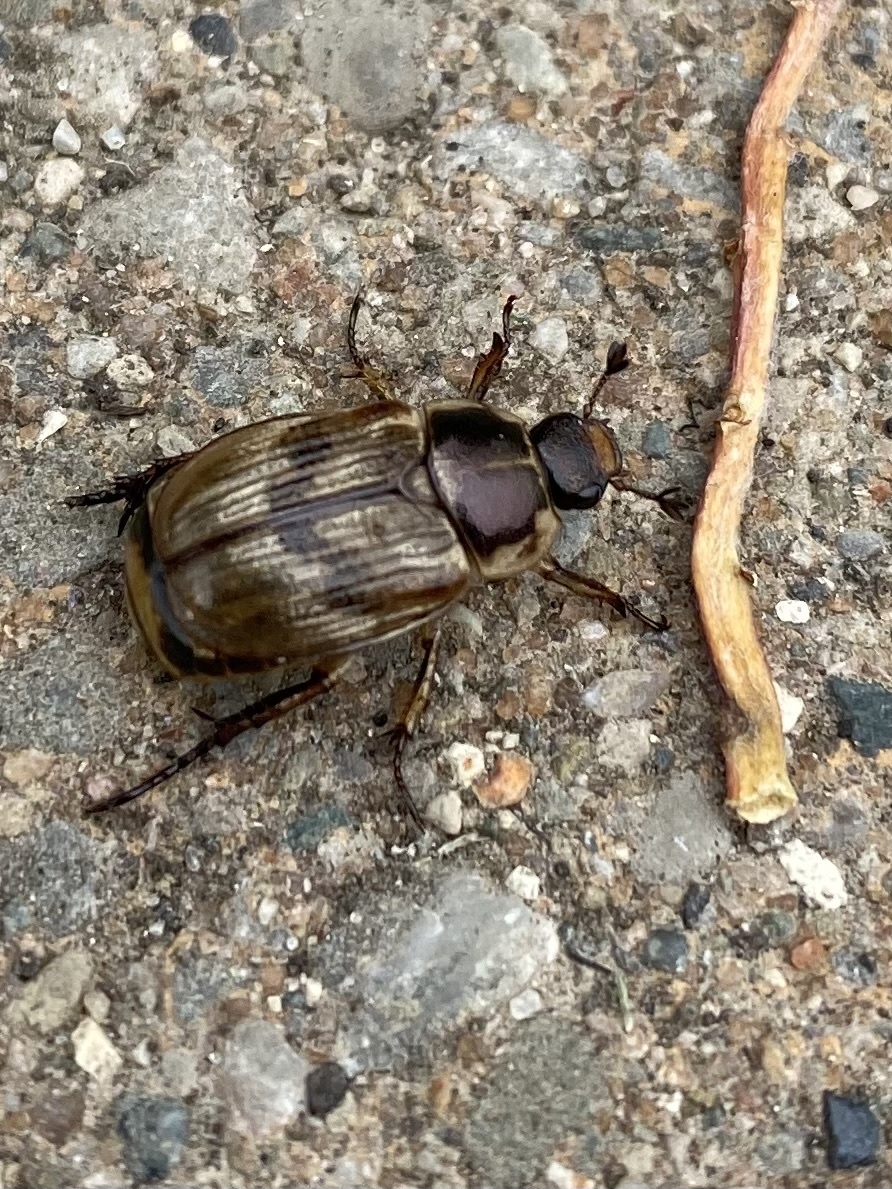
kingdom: Animalia
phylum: Arthropoda
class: Insecta
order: Coleoptera
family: Scarabaeidae
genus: Exomala
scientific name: Exomala orientalis
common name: Oriental beetle
